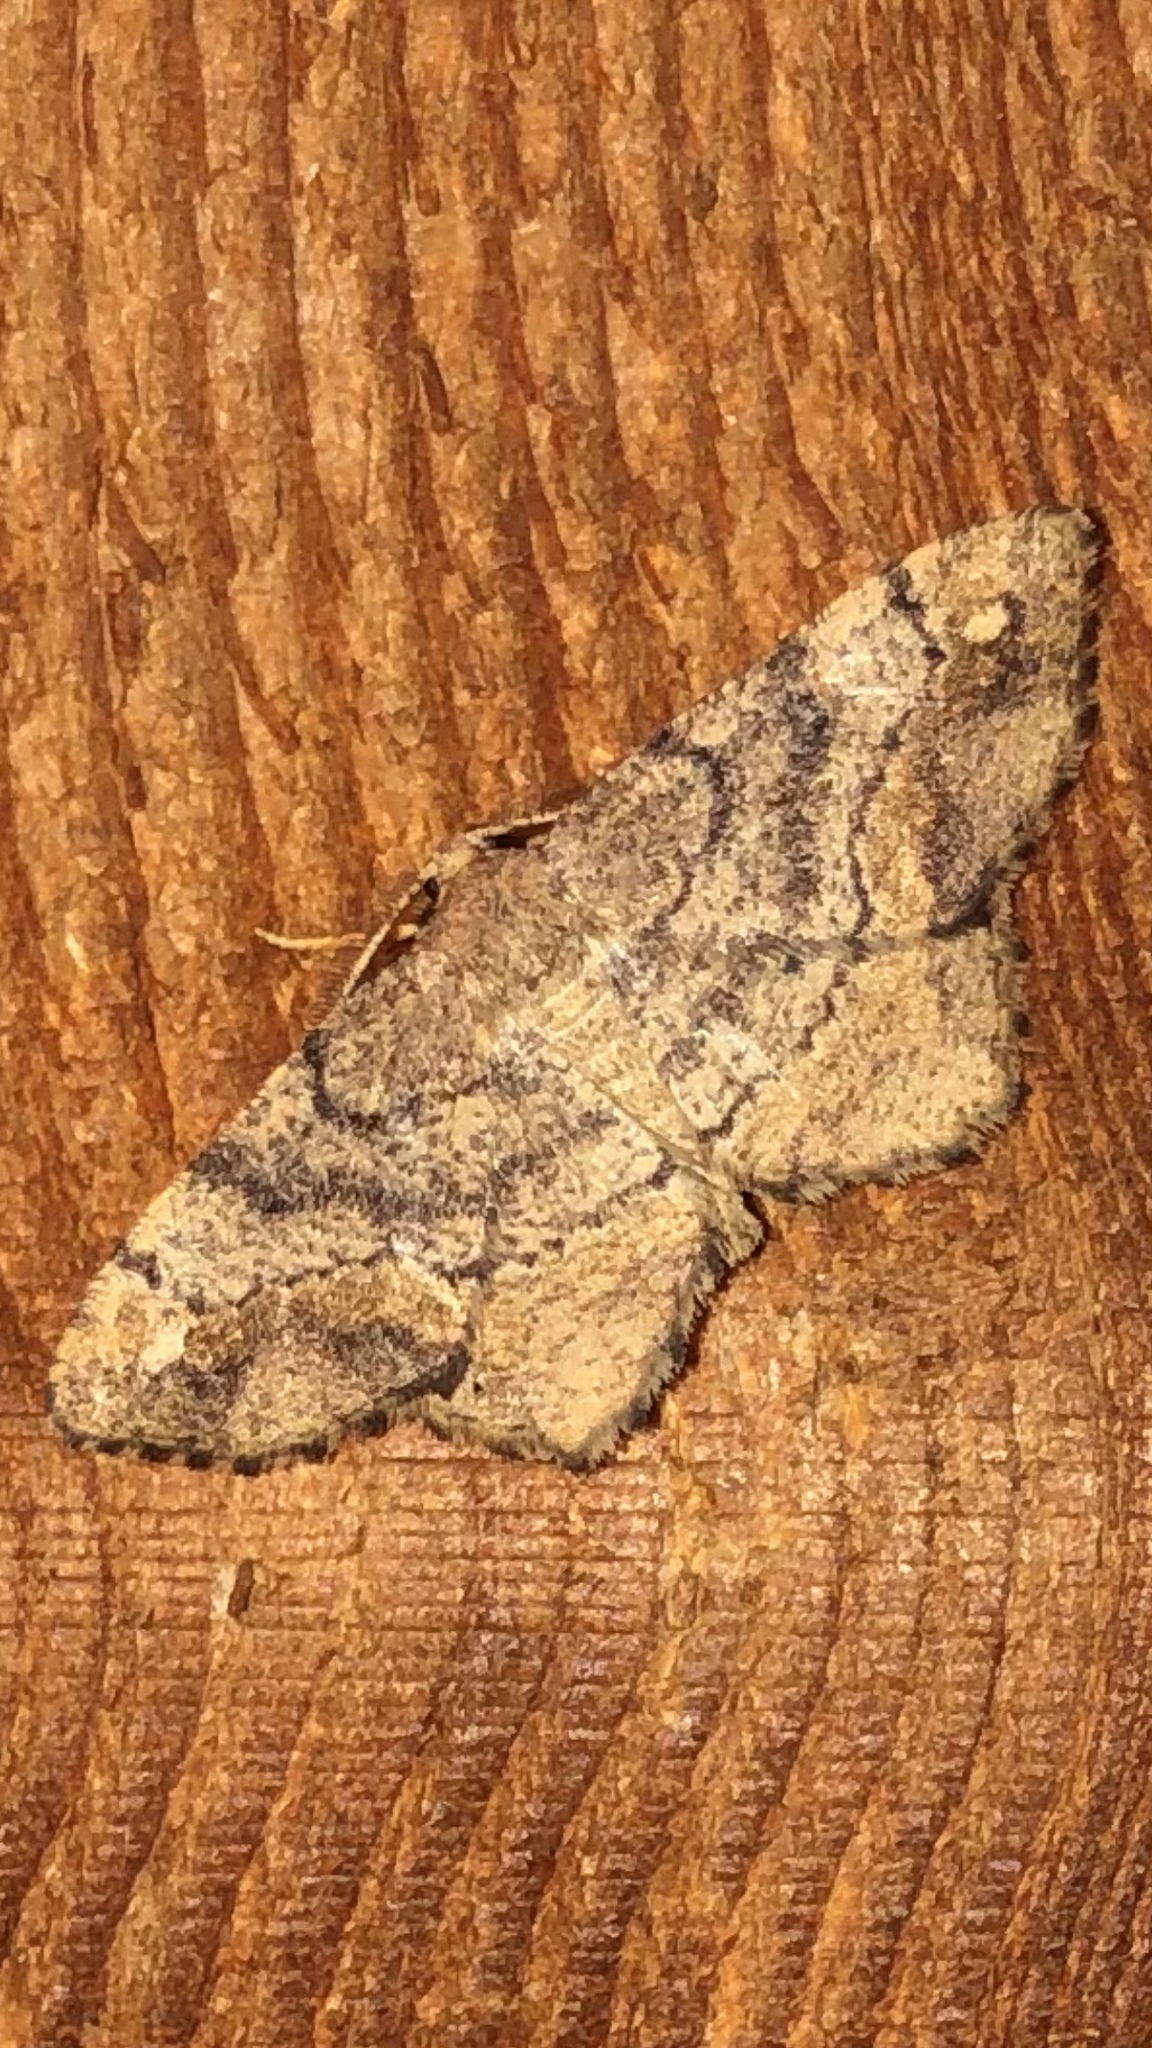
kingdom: Animalia
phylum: Arthropoda
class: Insecta
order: Lepidoptera
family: Geometridae
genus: Hypagyrtis
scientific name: Hypagyrtis unipunctata
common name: One-spotted variant
